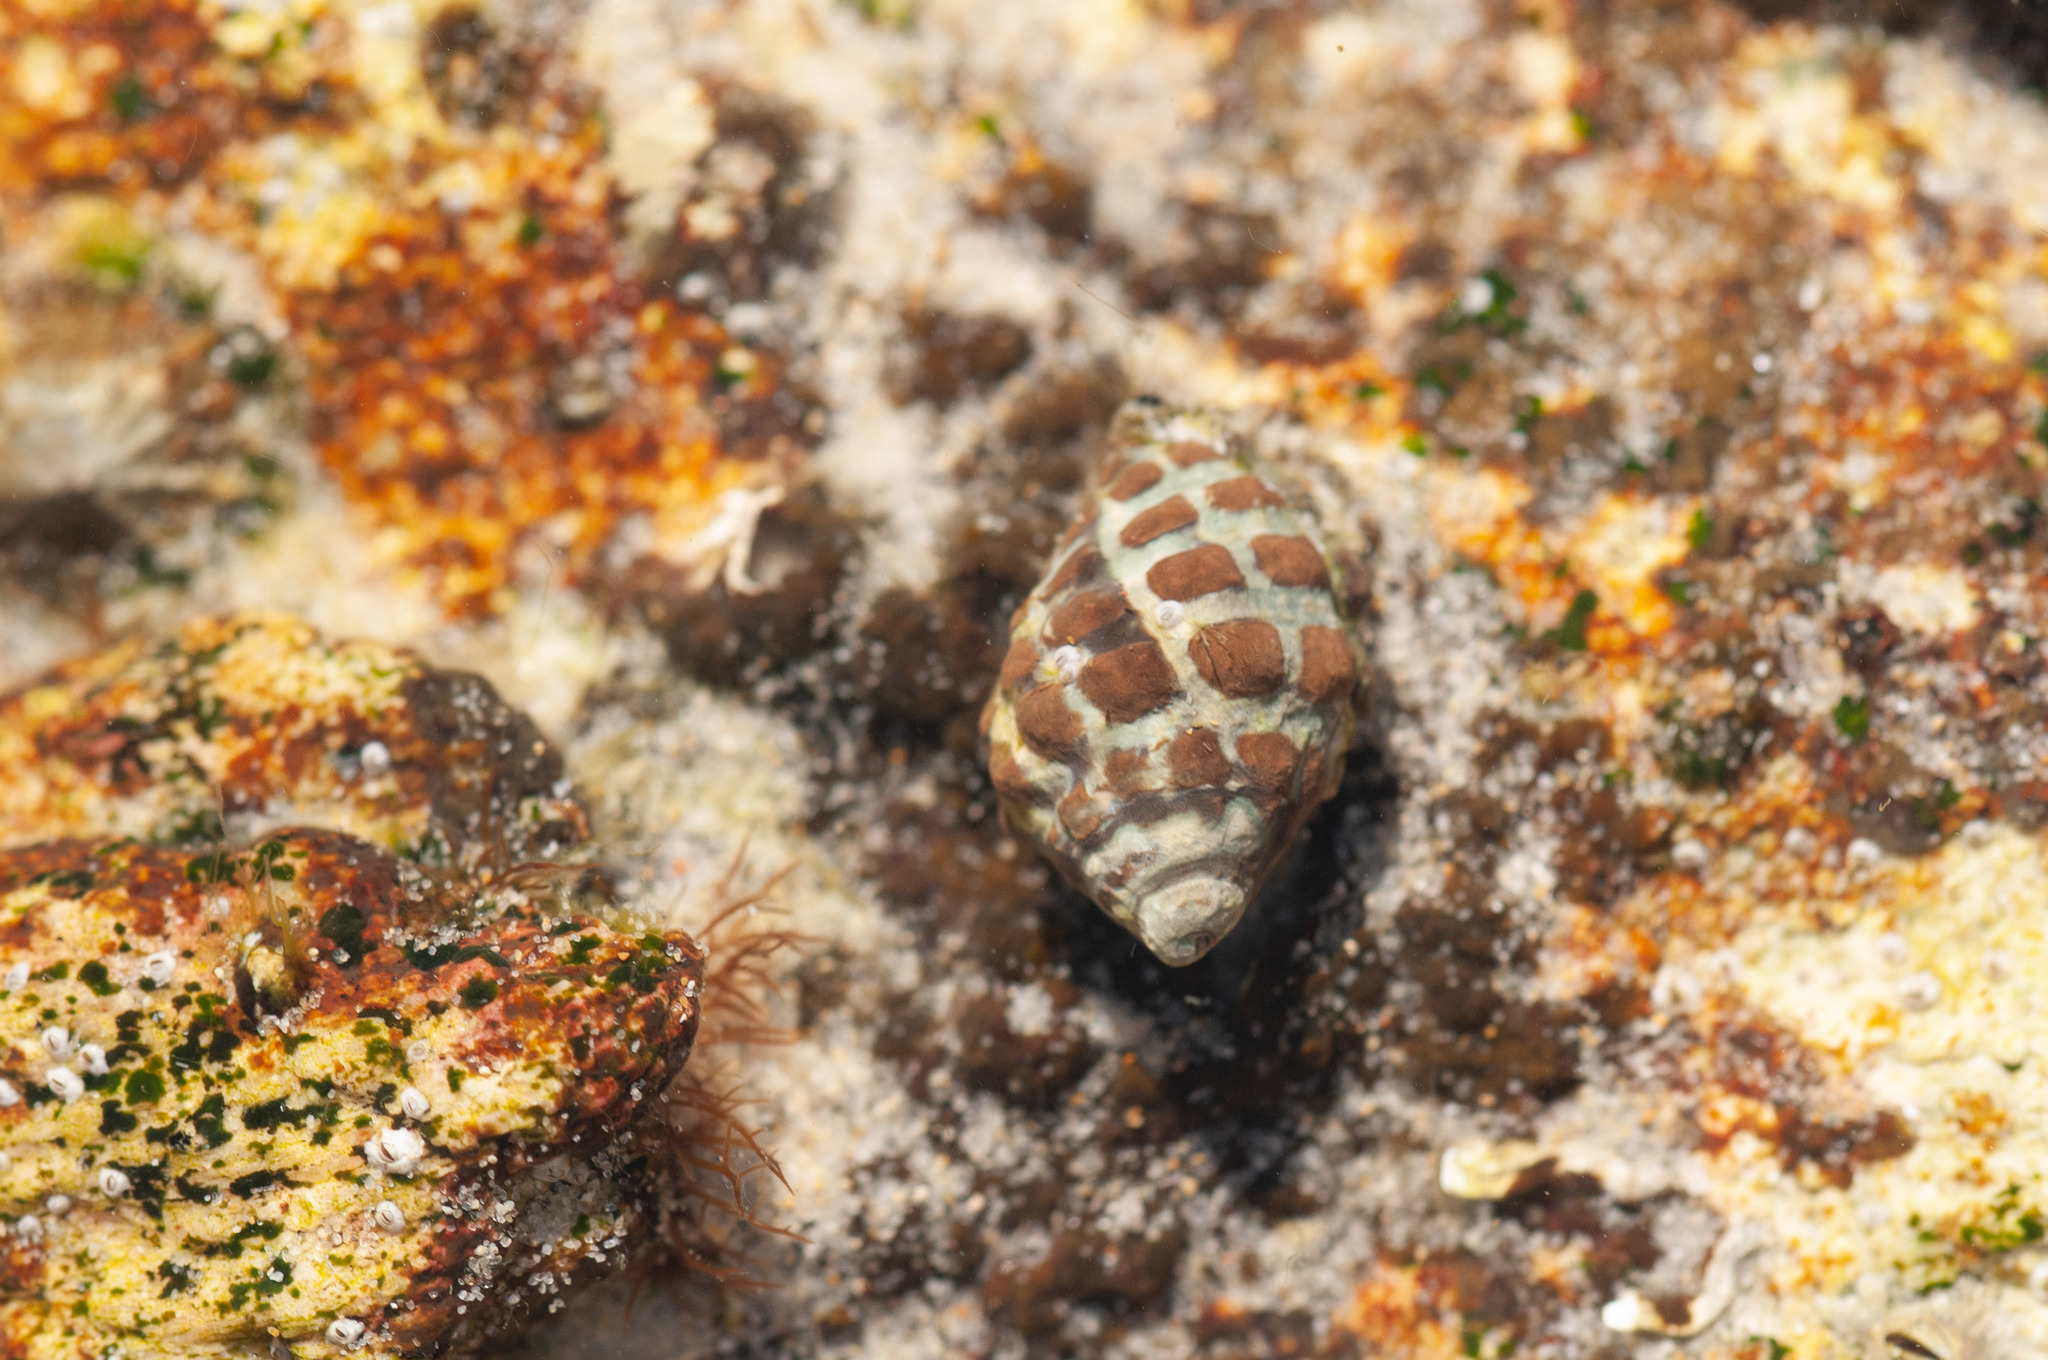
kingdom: Animalia
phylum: Mollusca
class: Gastropoda
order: Neogastropoda
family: Muricidae
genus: Tenguella
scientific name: Tenguella marginalba
